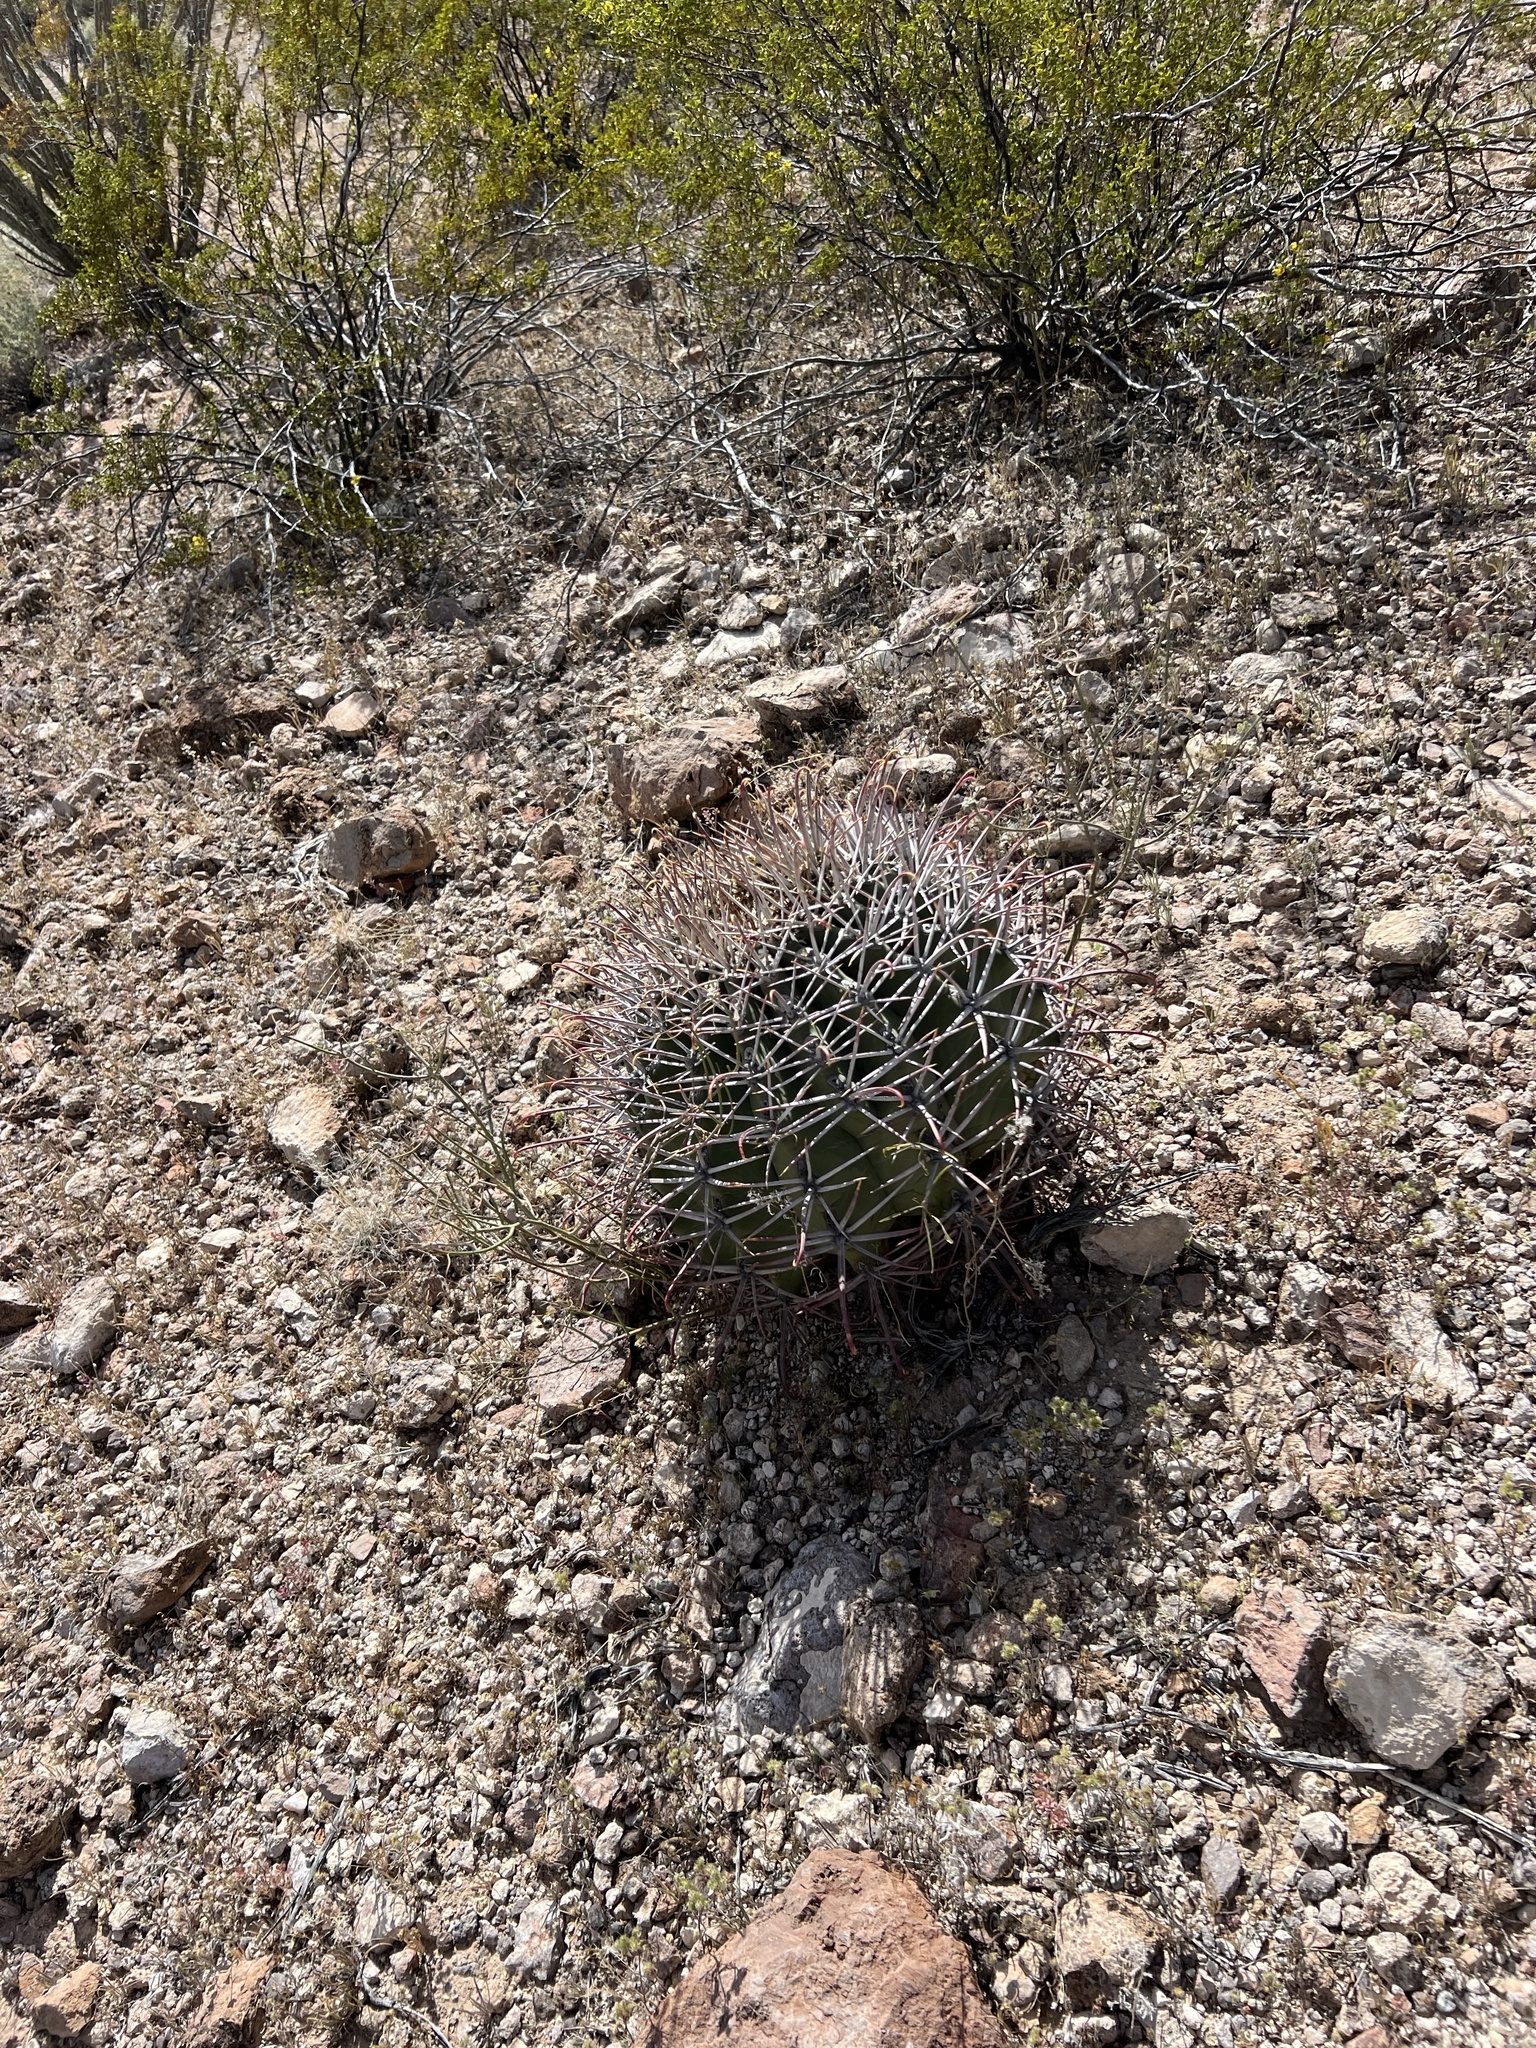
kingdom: Plantae
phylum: Tracheophyta
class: Magnoliopsida
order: Caryophyllales
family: Cactaceae
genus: Ferocactus
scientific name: Ferocactus emoryi
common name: Emory's barrel cactus
